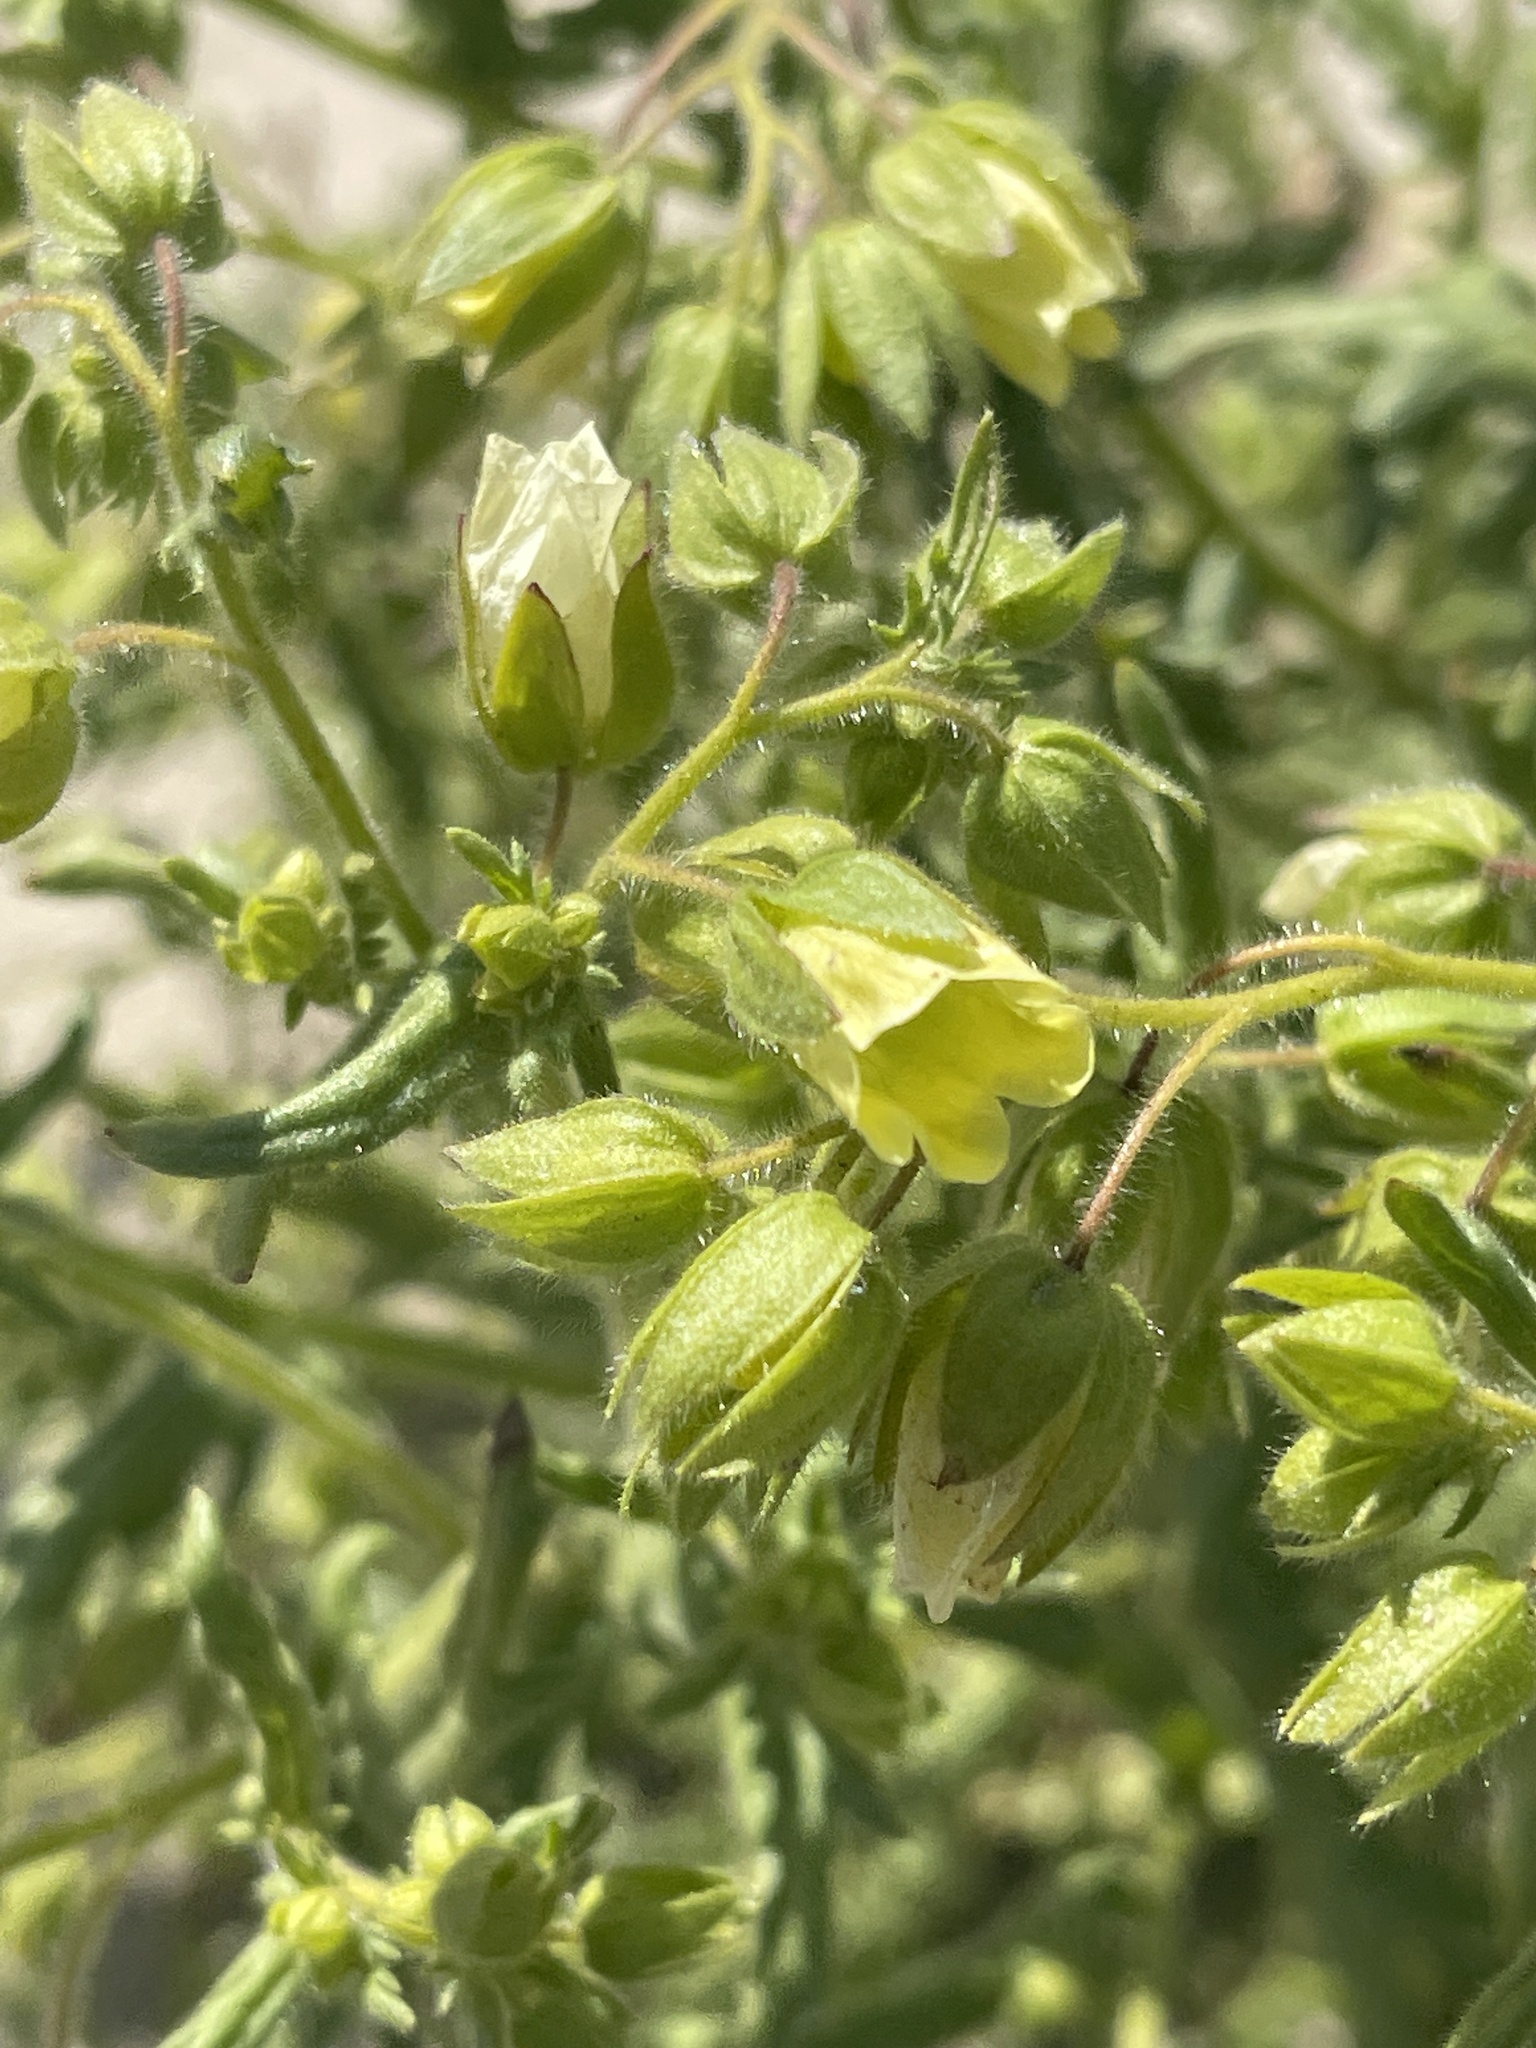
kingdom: Plantae
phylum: Tracheophyta
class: Magnoliopsida
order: Boraginales
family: Hydrophyllaceae
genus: Emmenanthe
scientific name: Emmenanthe penduliflora
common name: Whispering-bells
